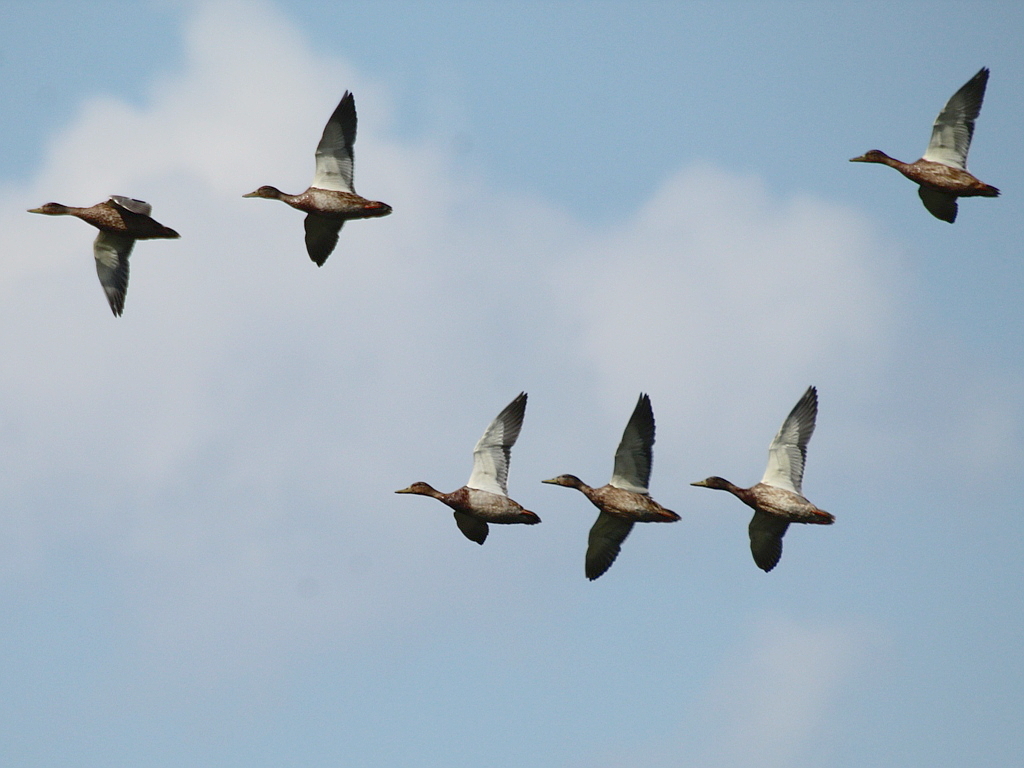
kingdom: Animalia
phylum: Chordata
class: Aves
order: Anseriformes
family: Anatidae
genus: Anas
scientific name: Anas platyrhynchos
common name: Mallard
